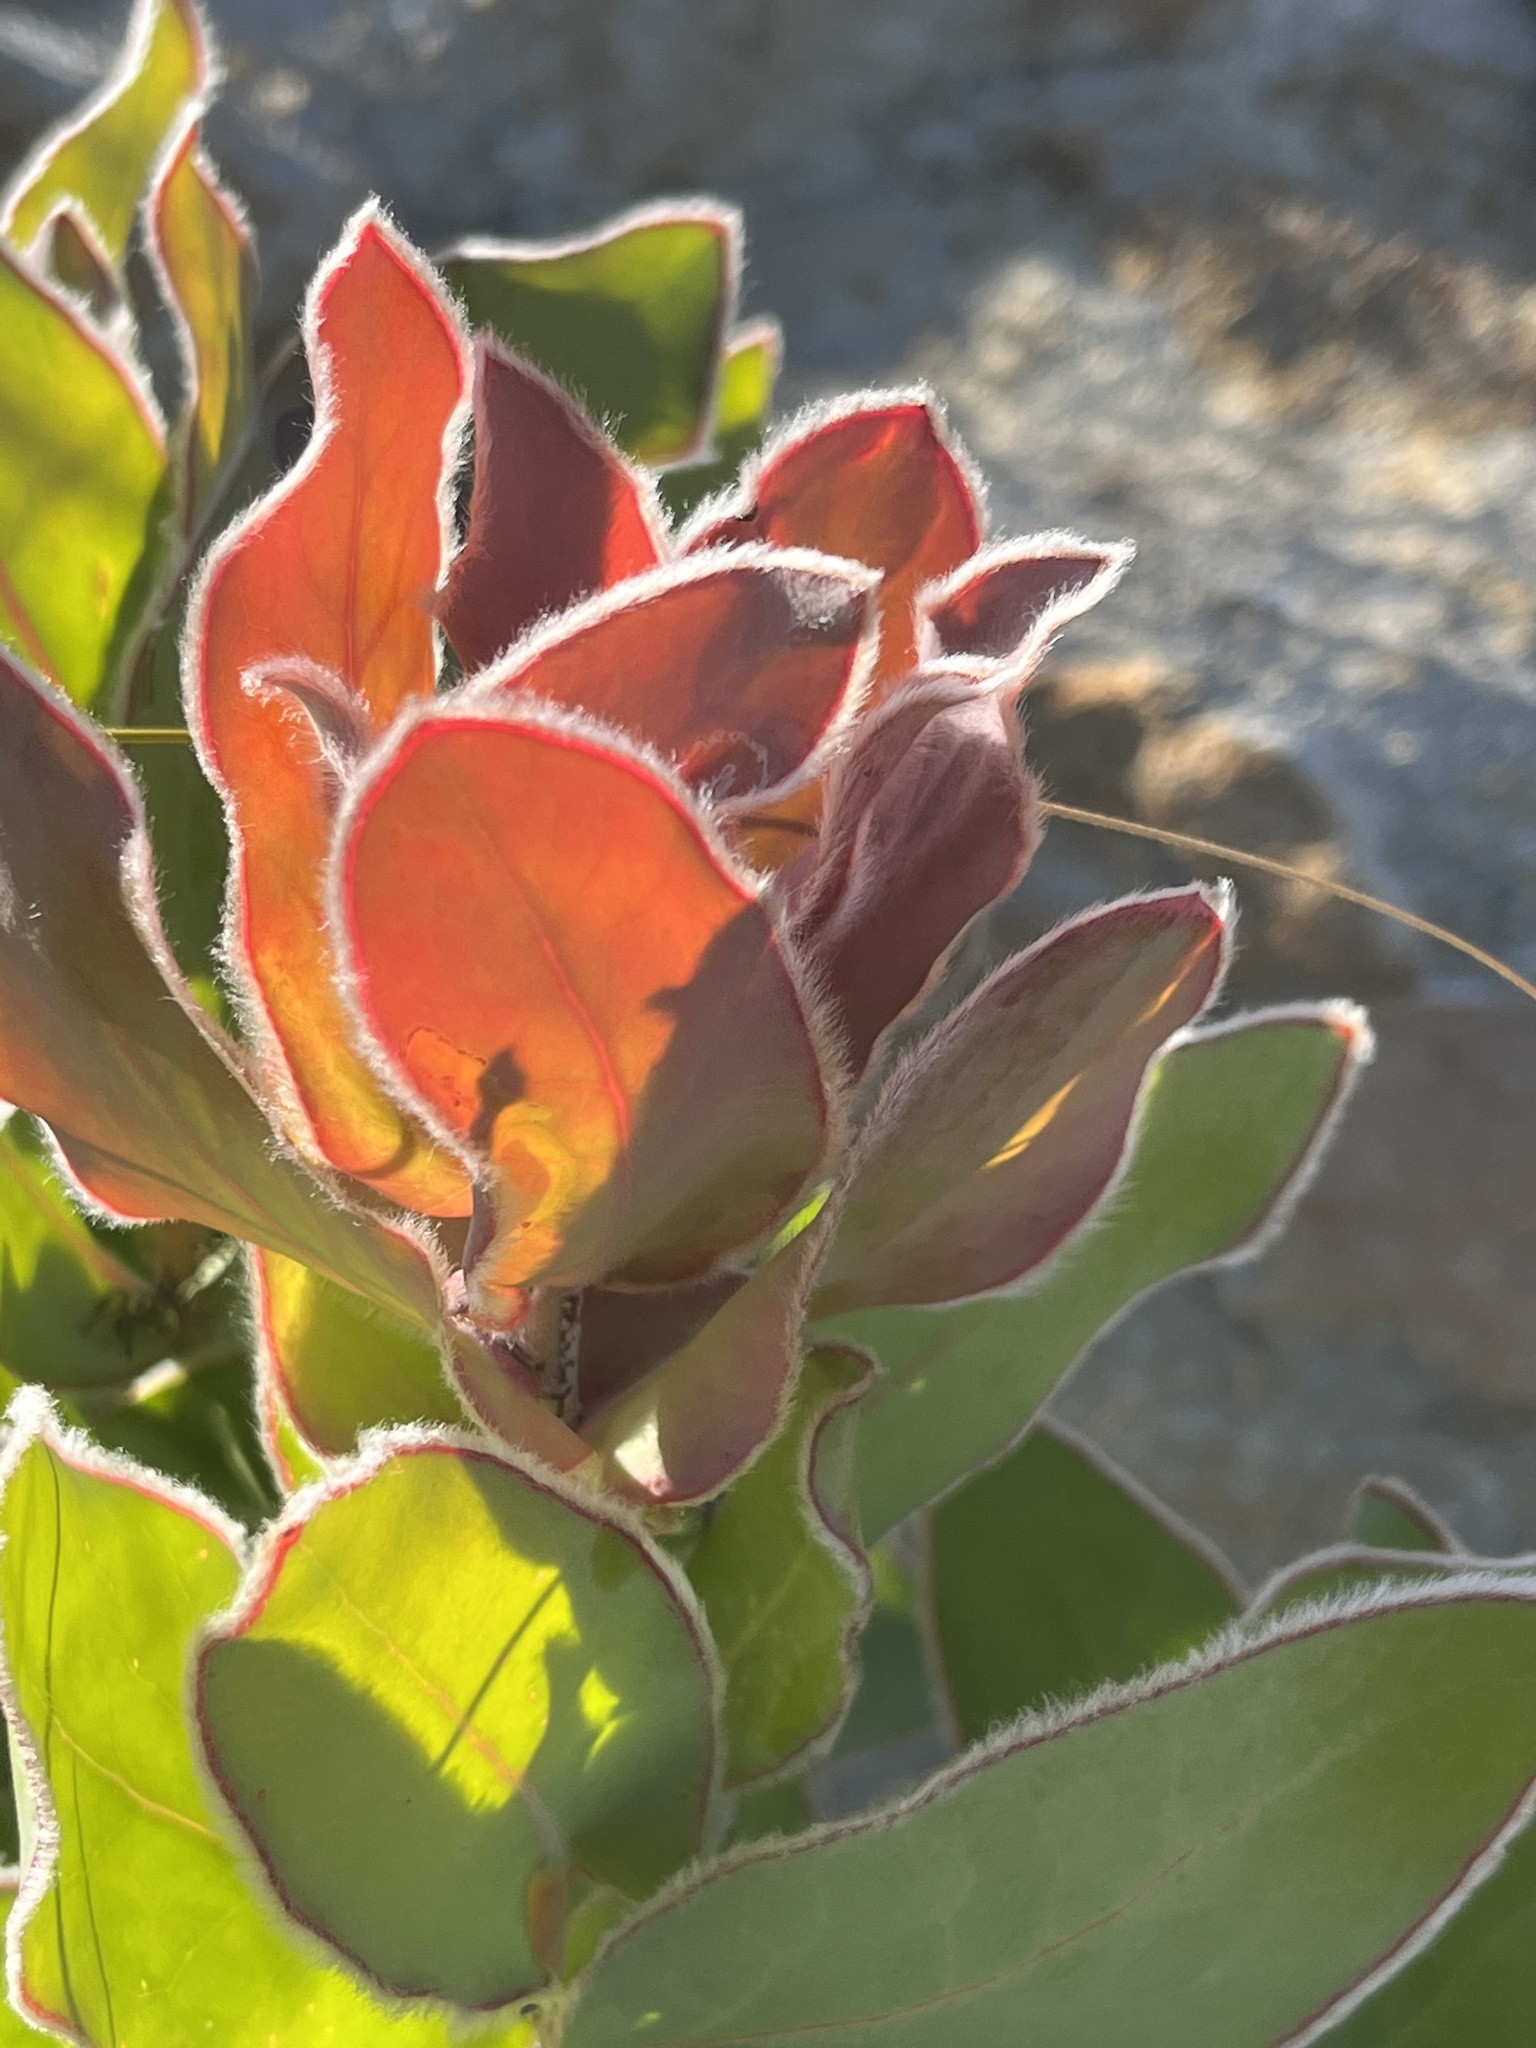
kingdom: Plantae
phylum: Tracheophyta
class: Magnoliopsida
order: Proteales
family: Proteaceae
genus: Protea
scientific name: Protea eximia
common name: Broad-leaved sugarbush
